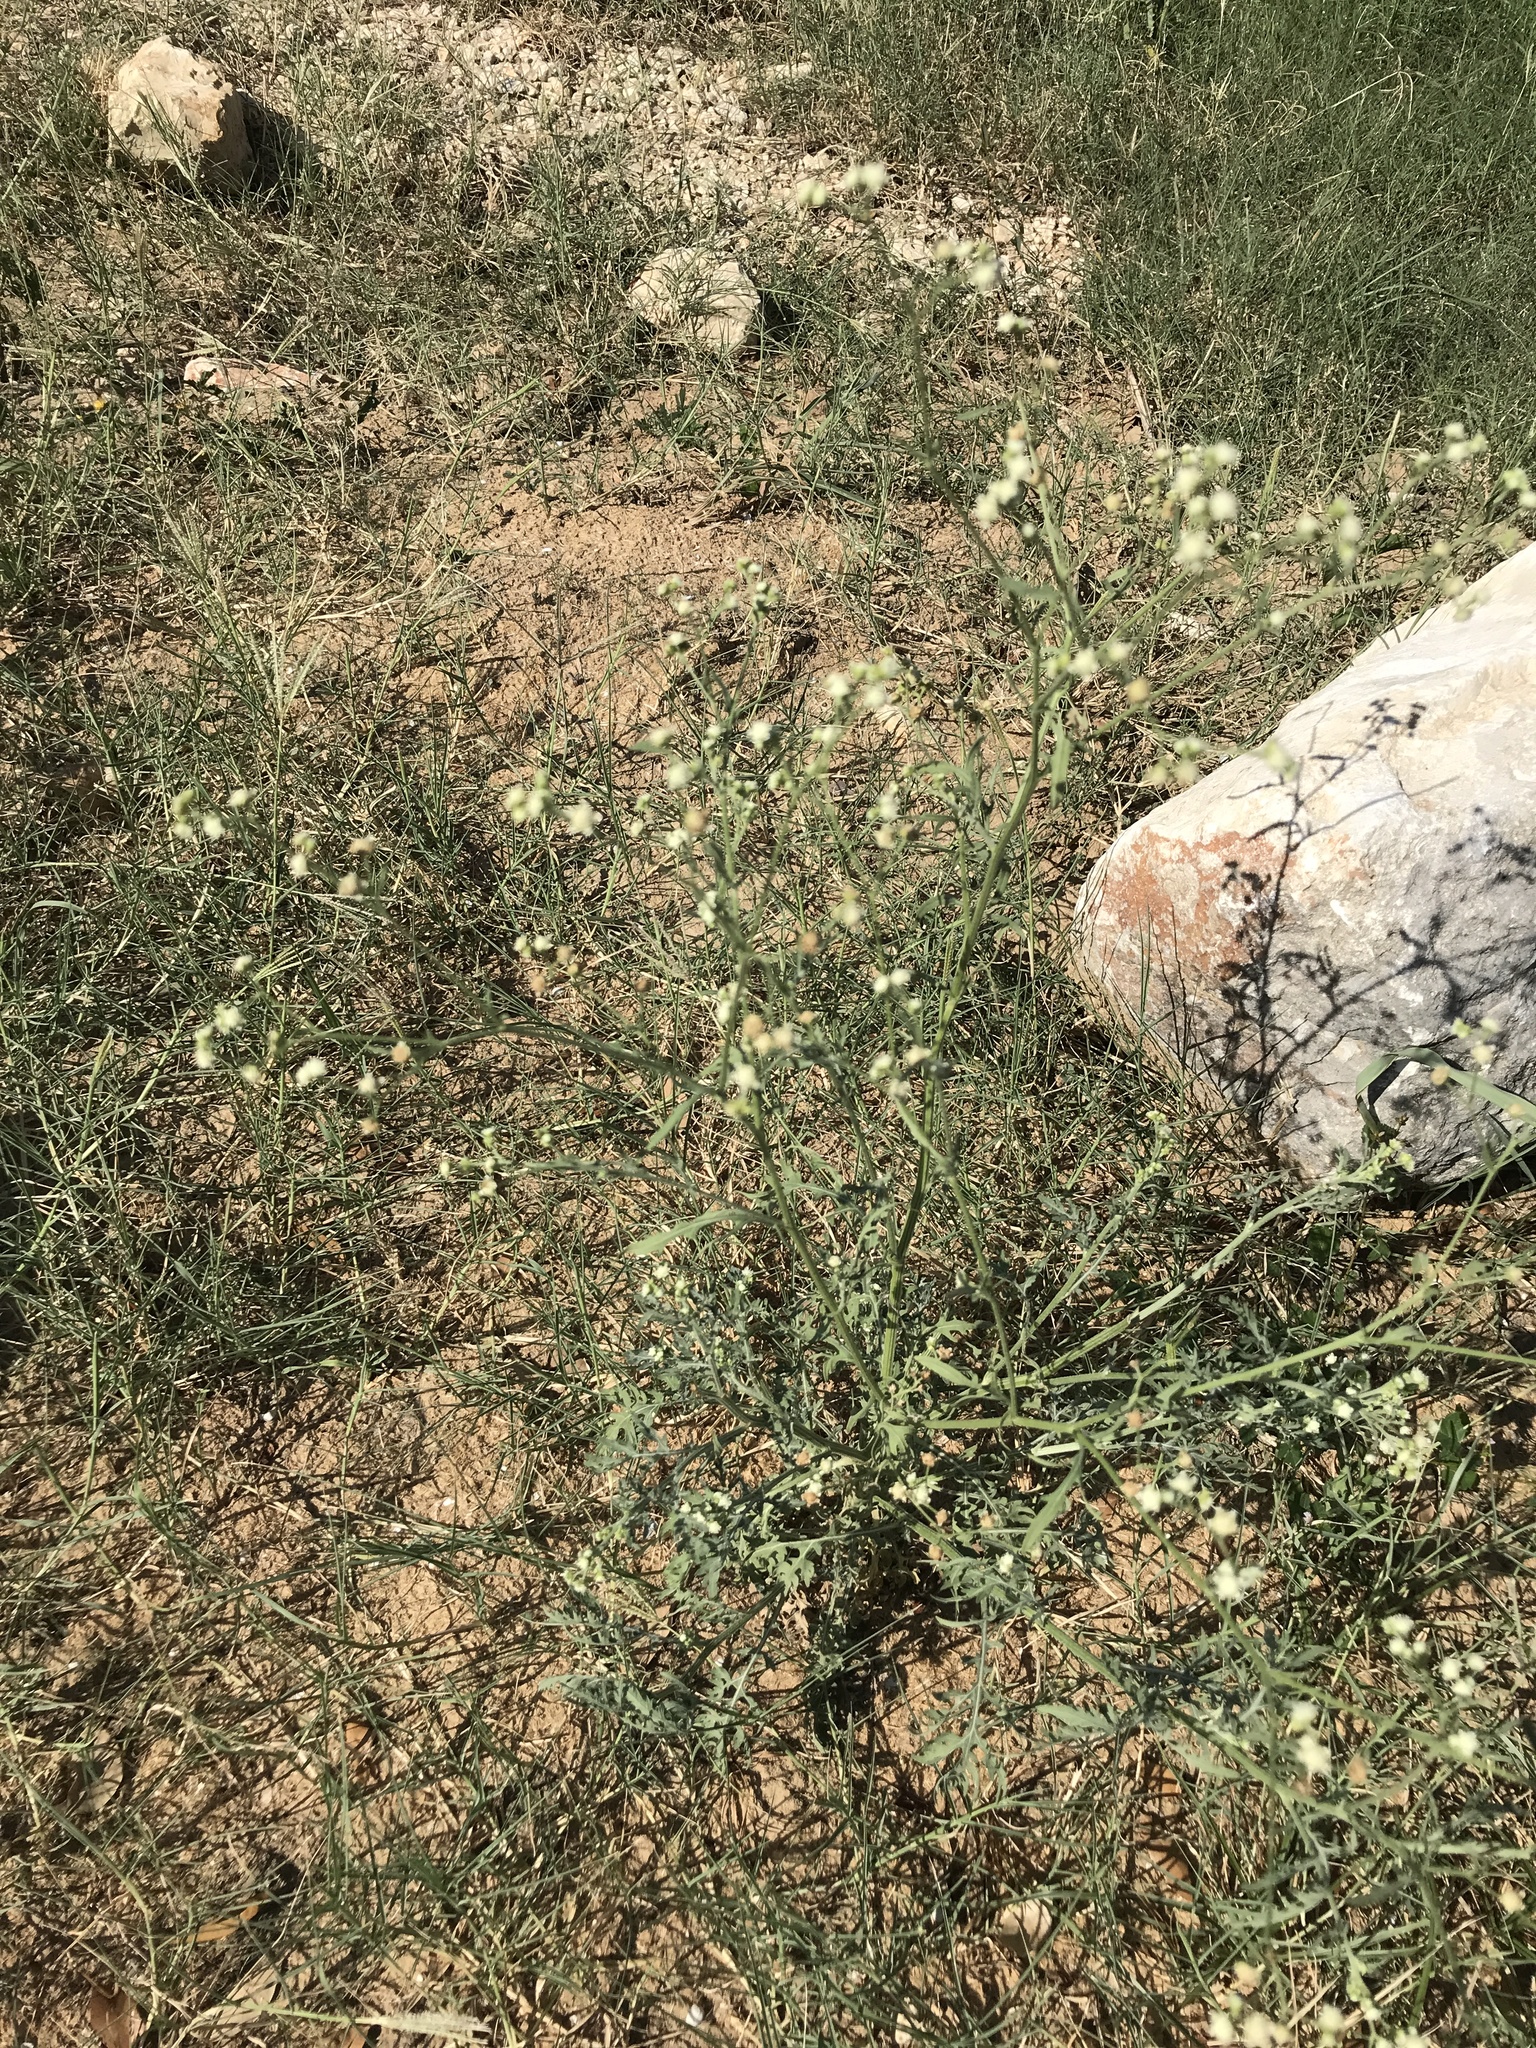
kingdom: Plantae
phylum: Tracheophyta
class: Magnoliopsida
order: Asterales
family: Asteraceae
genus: Parthenium
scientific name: Parthenium hysterophorus
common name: Santa maria feverfew
